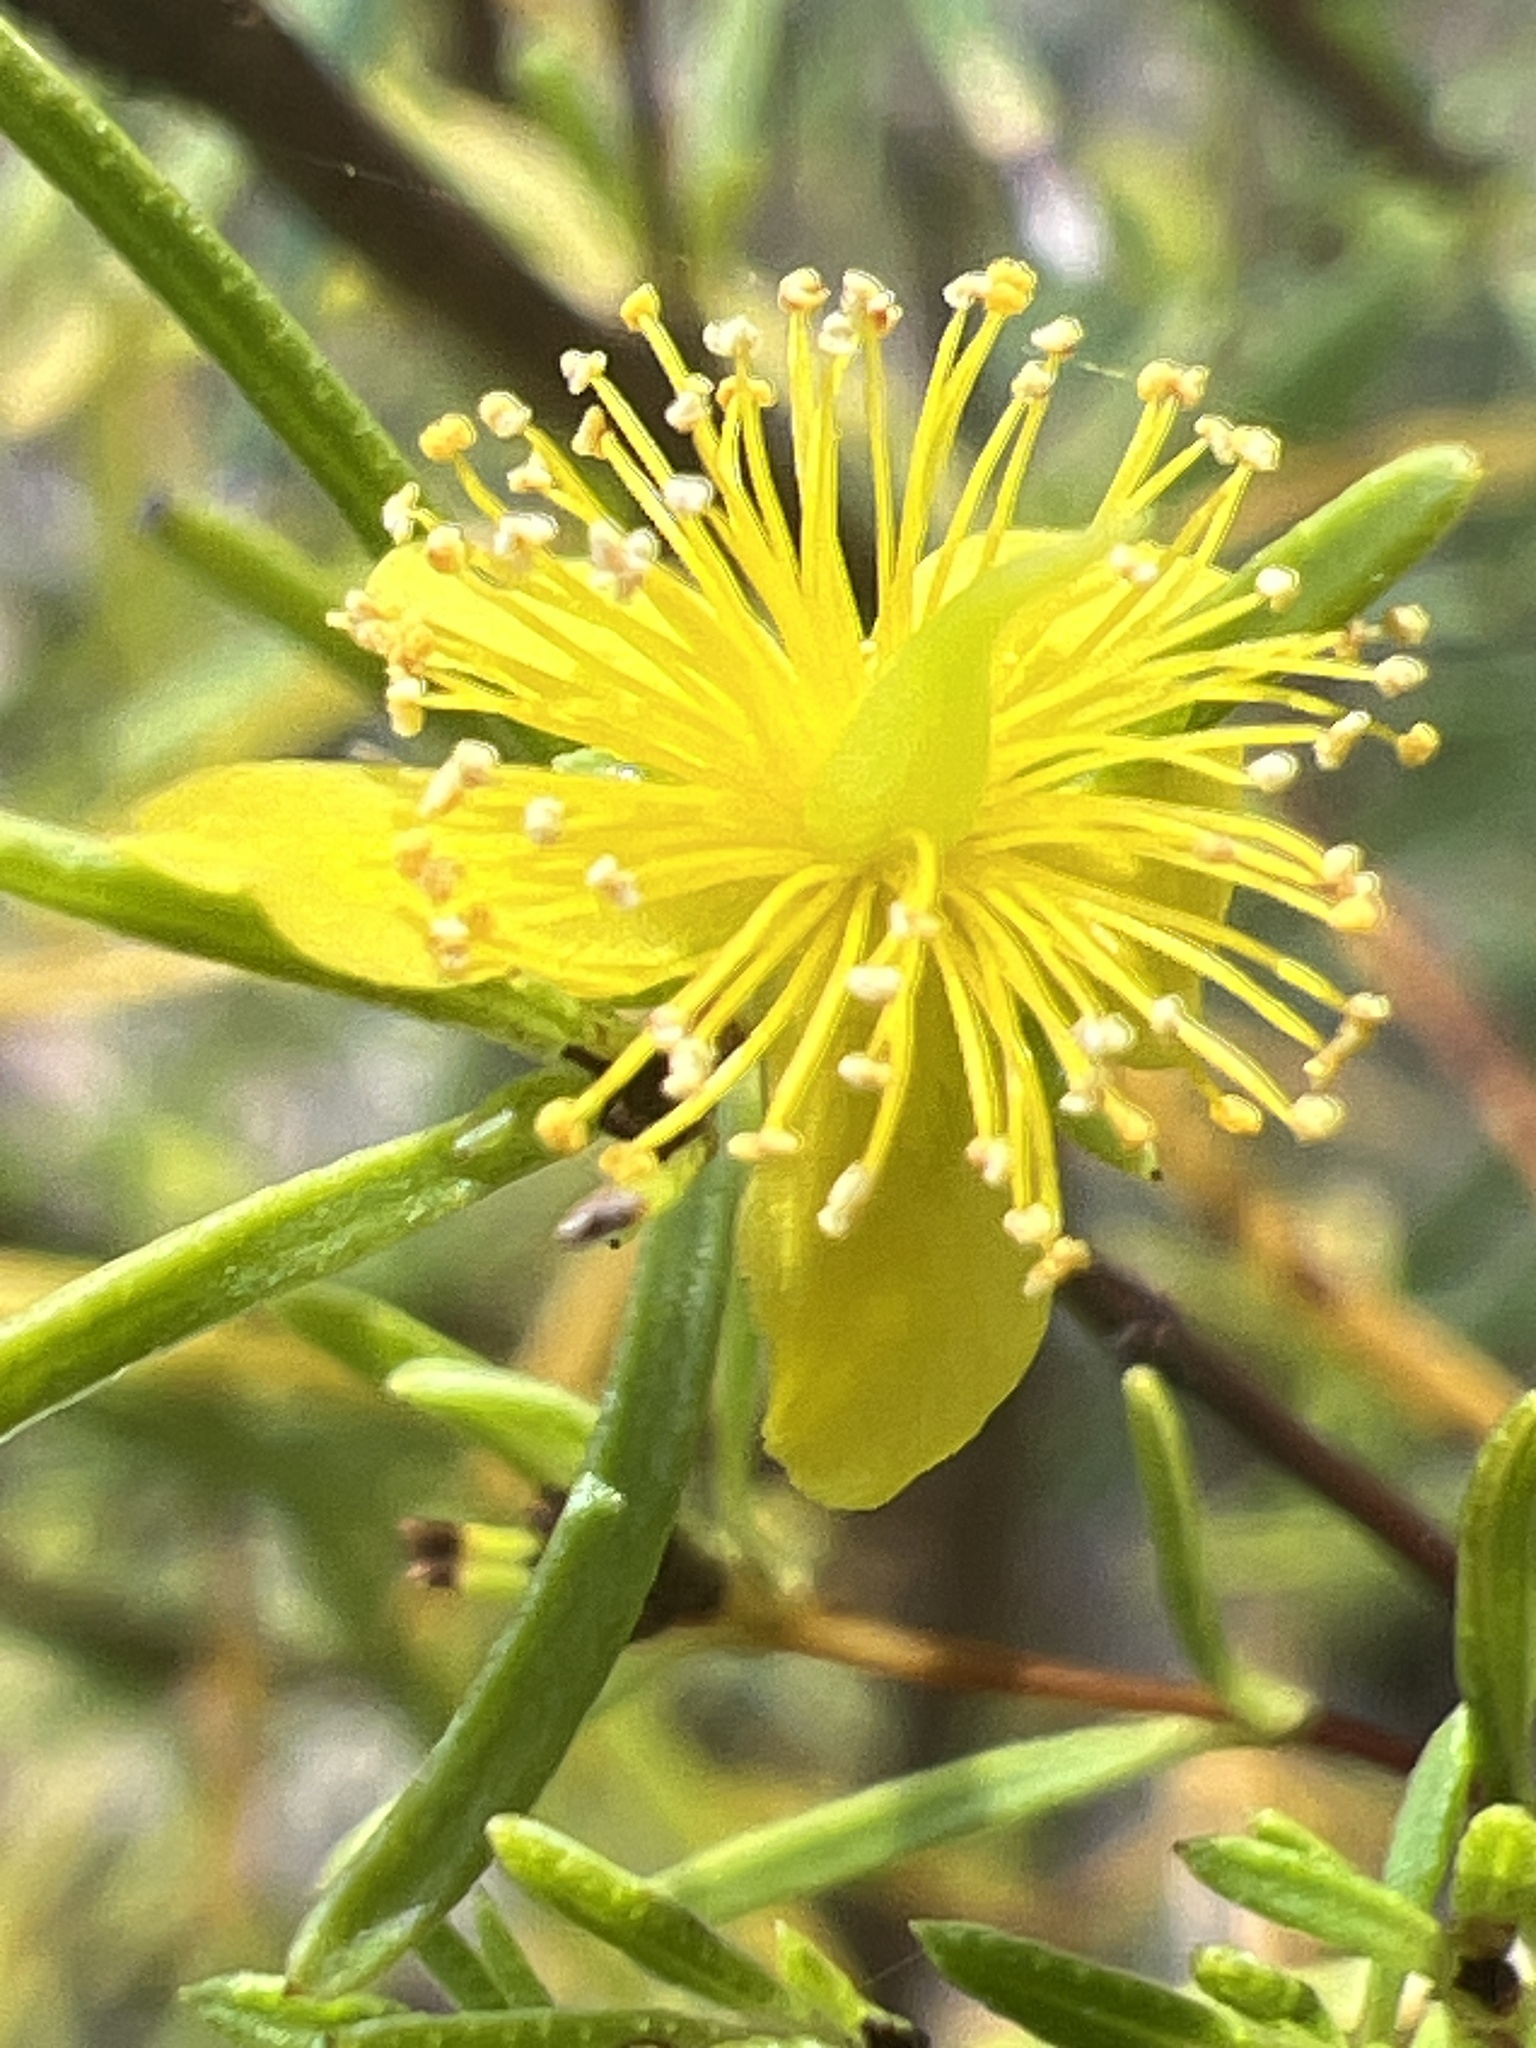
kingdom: Plantae
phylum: Tracheophyta
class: Magnoliopsida
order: Malpighiales
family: Hypericaceae
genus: Hypericum
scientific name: Hypericum lloydii
